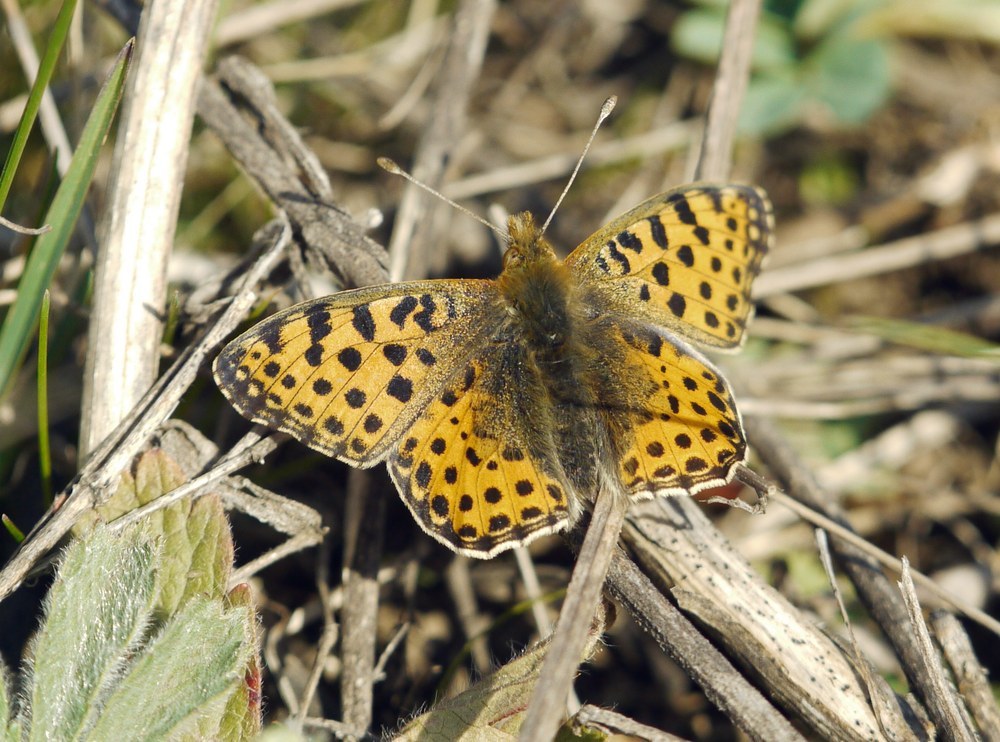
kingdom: Animalia
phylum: Arthropoda
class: Insecta
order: Lepidoptera
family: Nymphalidae
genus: Issoria
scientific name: Issoria lathonia
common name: Queen of spain fritillary
